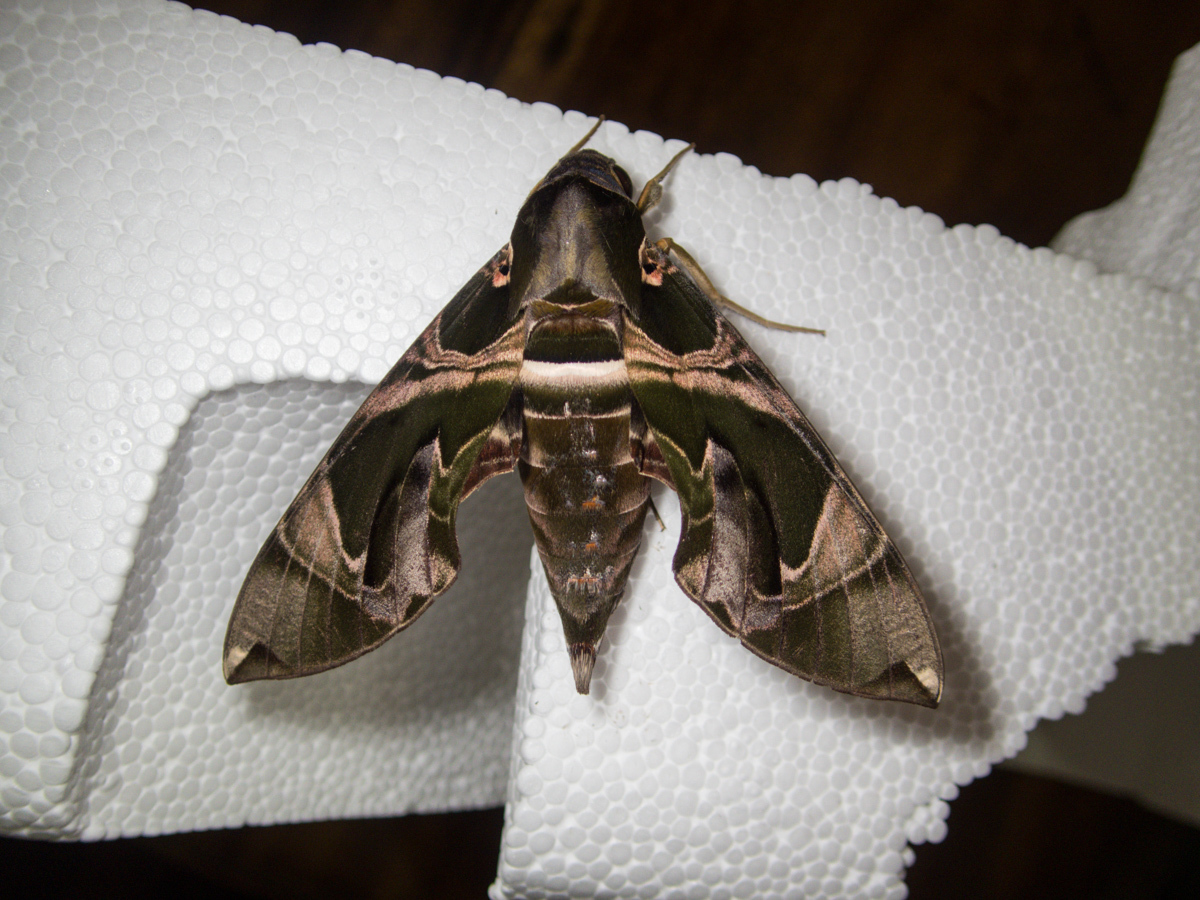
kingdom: Animalia
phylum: Arthropoda
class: Insecta
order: Lepidoptera
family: Sphingidae
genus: Daphnis
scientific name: Daphnis hypothous
